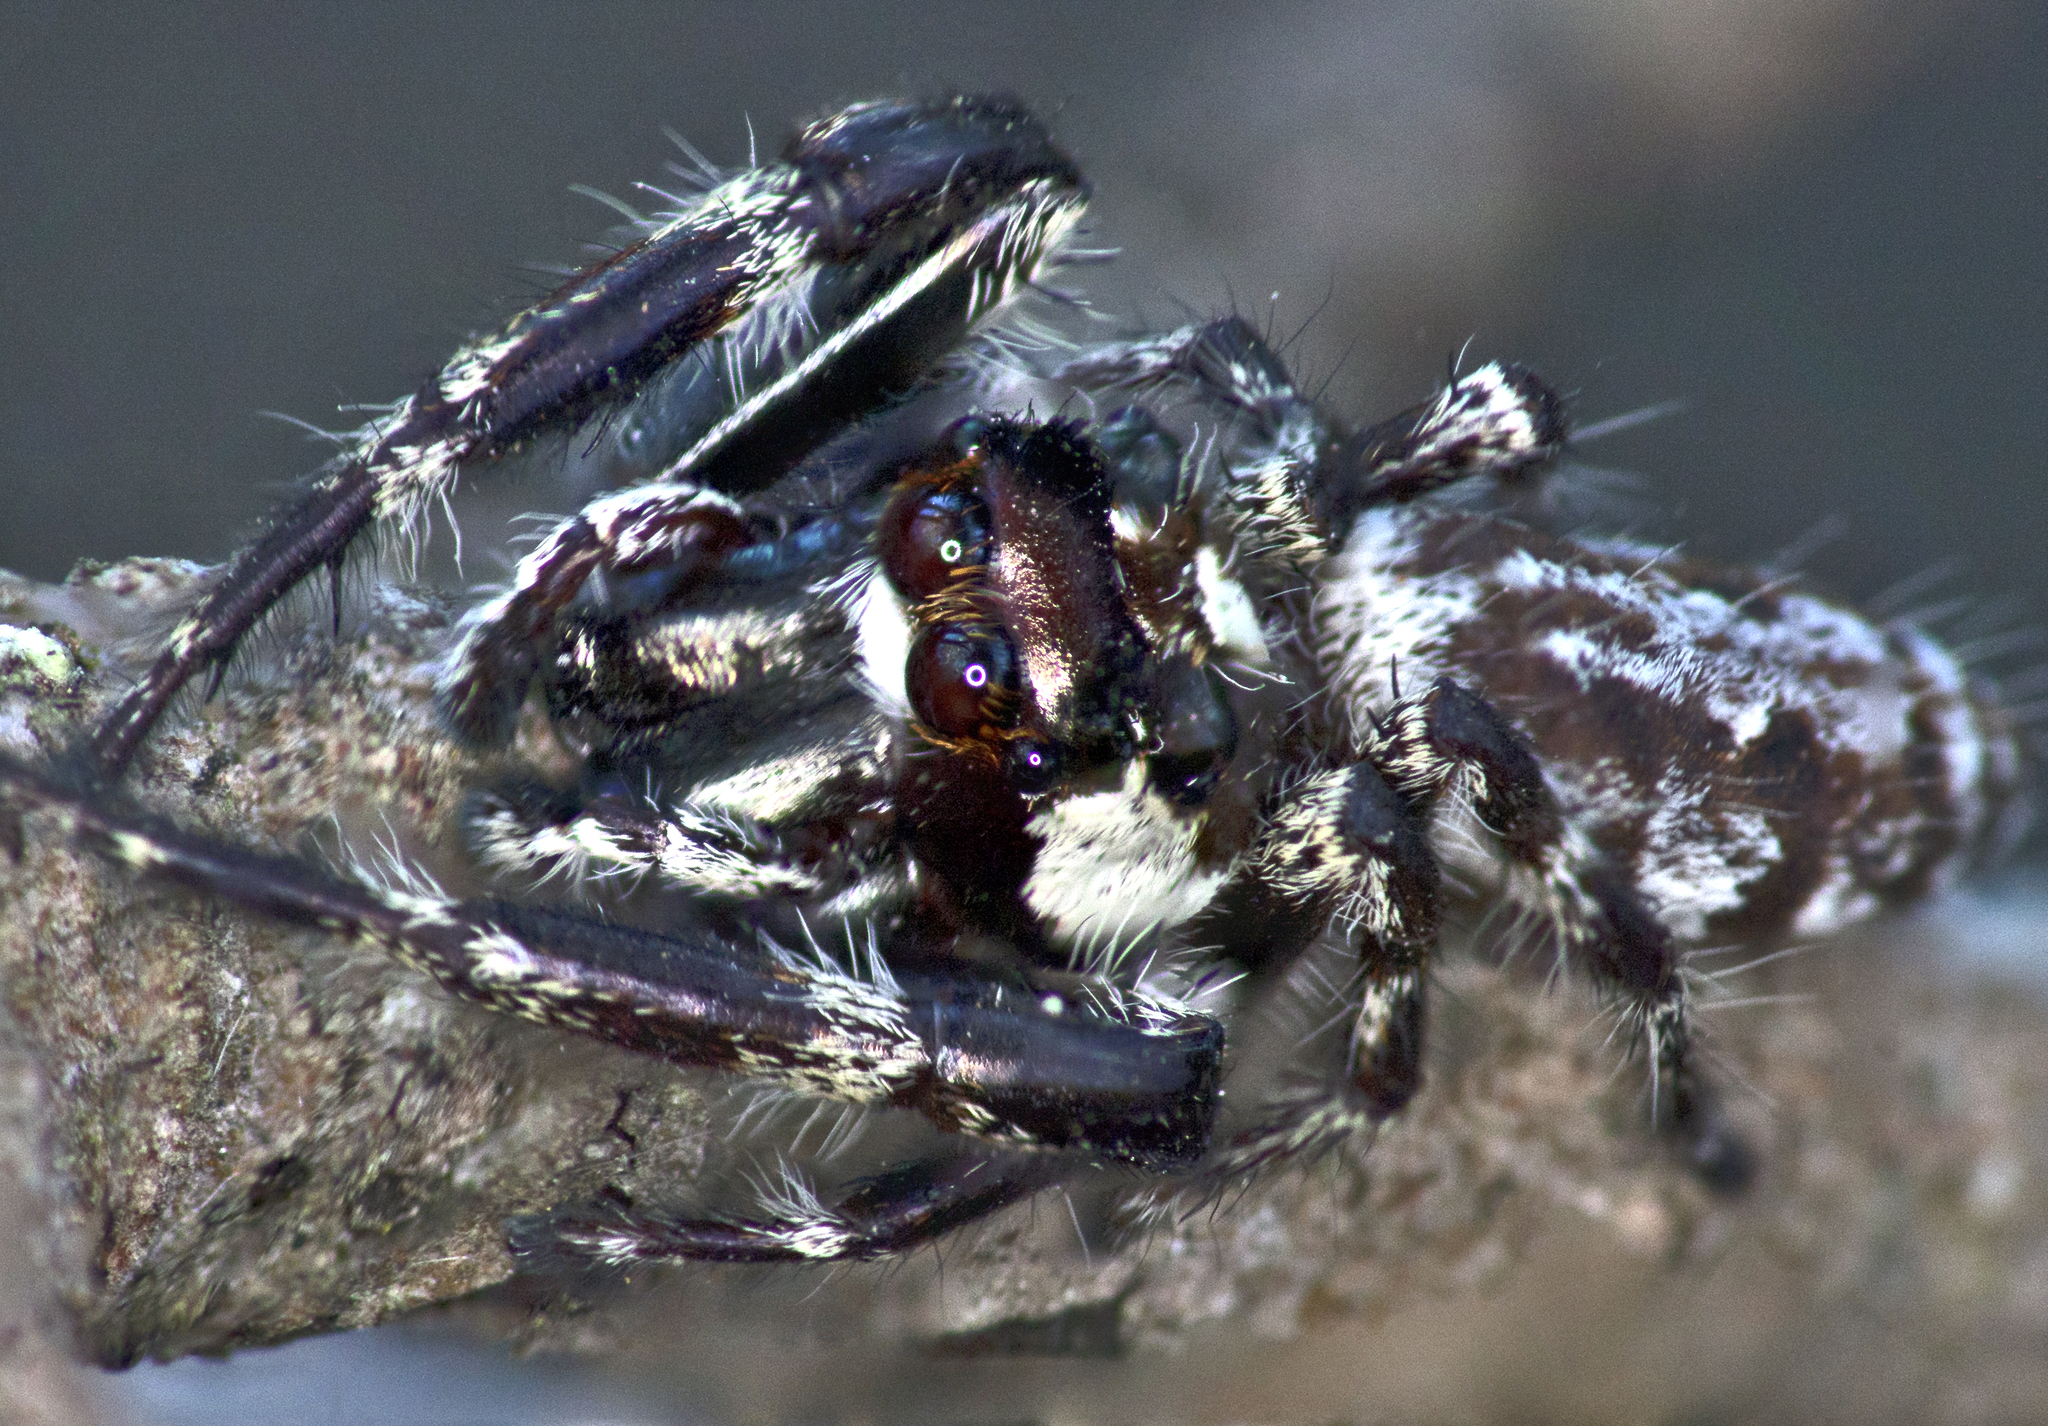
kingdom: Animalia
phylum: Arthropoda
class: Arachnida
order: Araneae
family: Salticidae
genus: Sandalodes
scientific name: Sandalodes bipenicillatus
